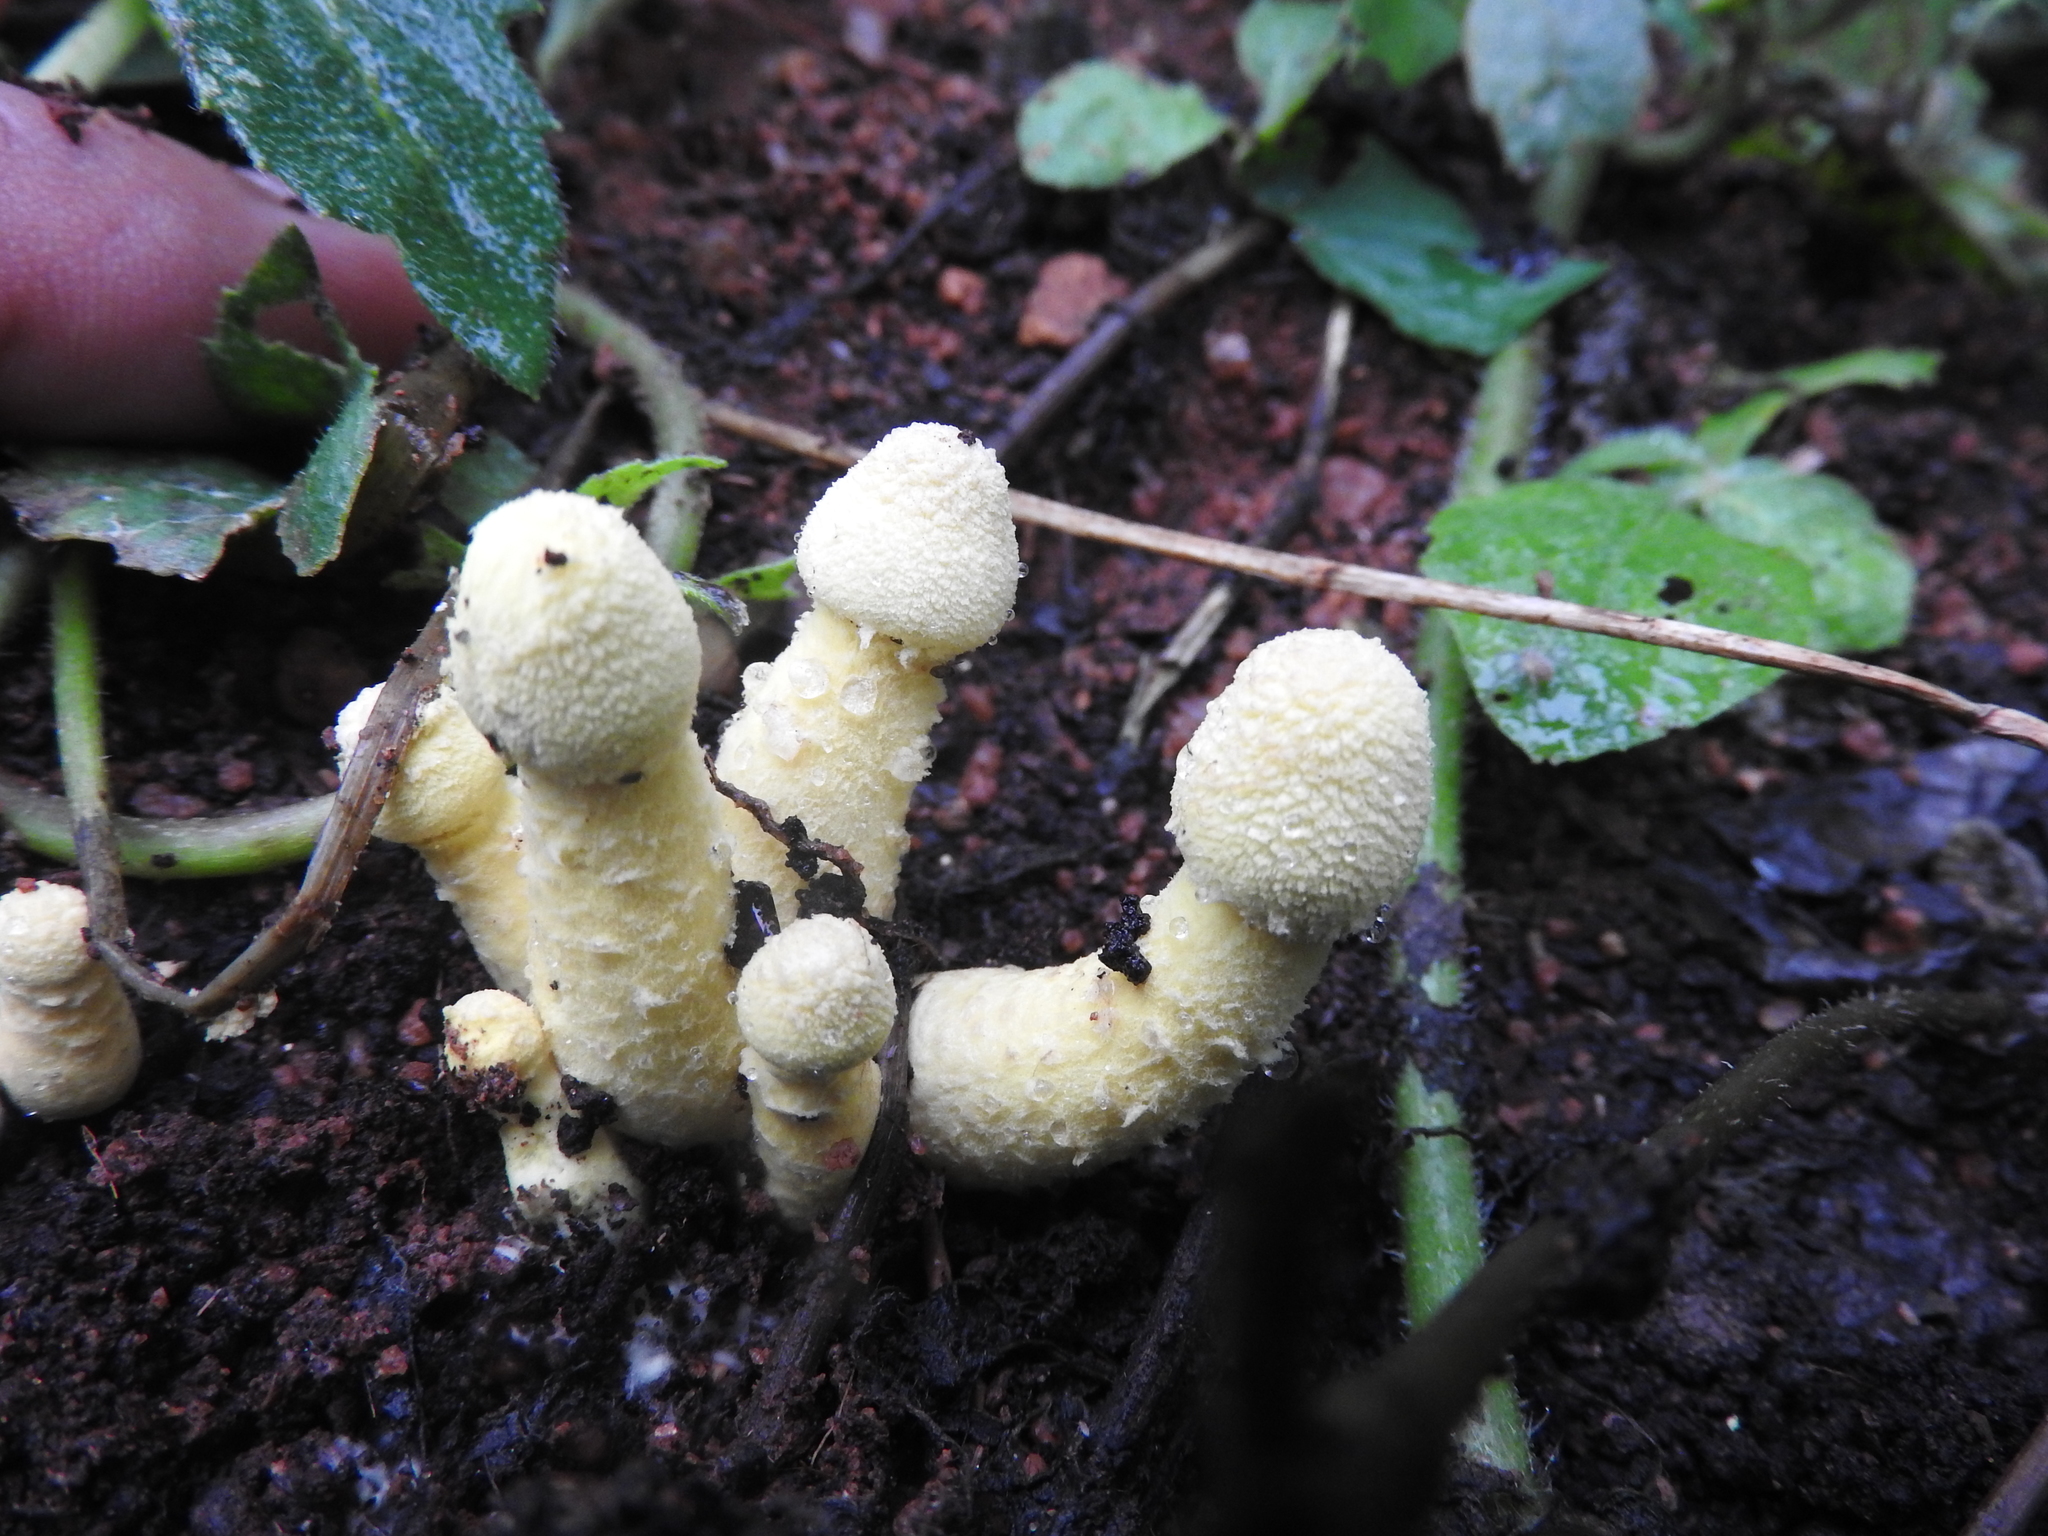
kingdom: Fungi
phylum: Basidiomycota
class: Agaricomycetes
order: Agaricales
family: Agaricaceae
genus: Leucocoprinus
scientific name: Leucocoprinus medioflavus
